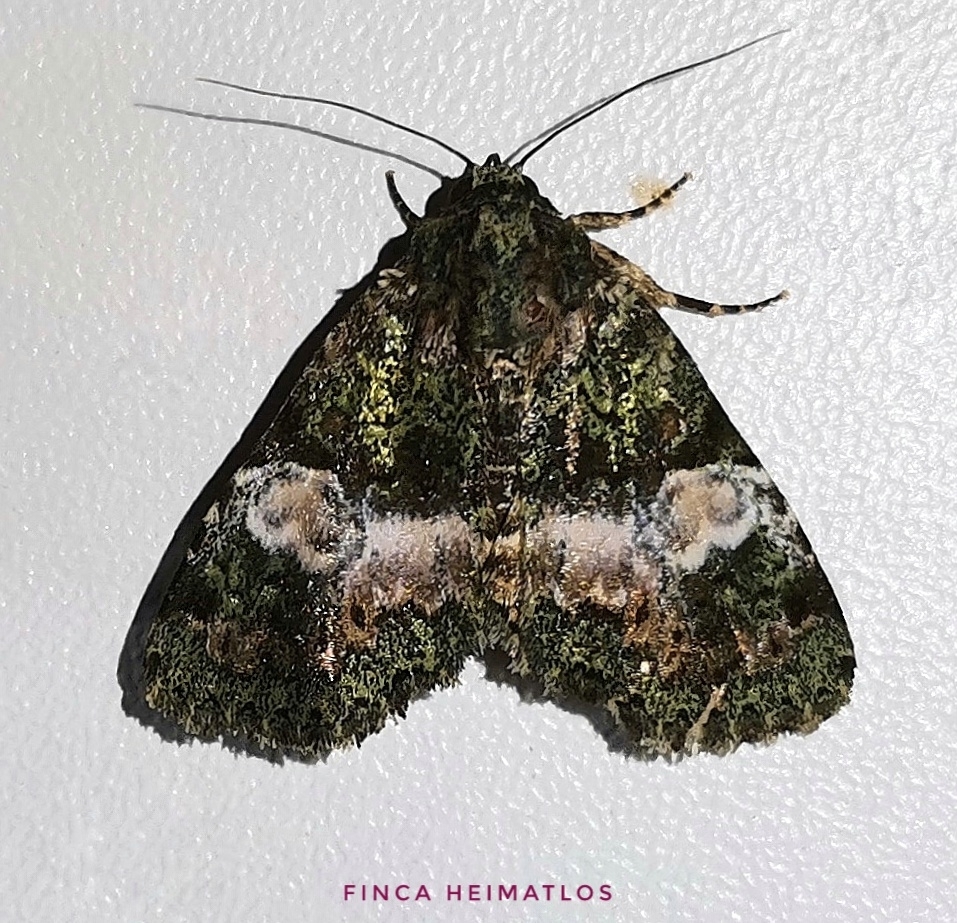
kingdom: Animalia
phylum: Arthropoda
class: Insecta
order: Lepidoptera
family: Erebidae
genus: Eudyops
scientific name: Eudyops fuscoviridis
